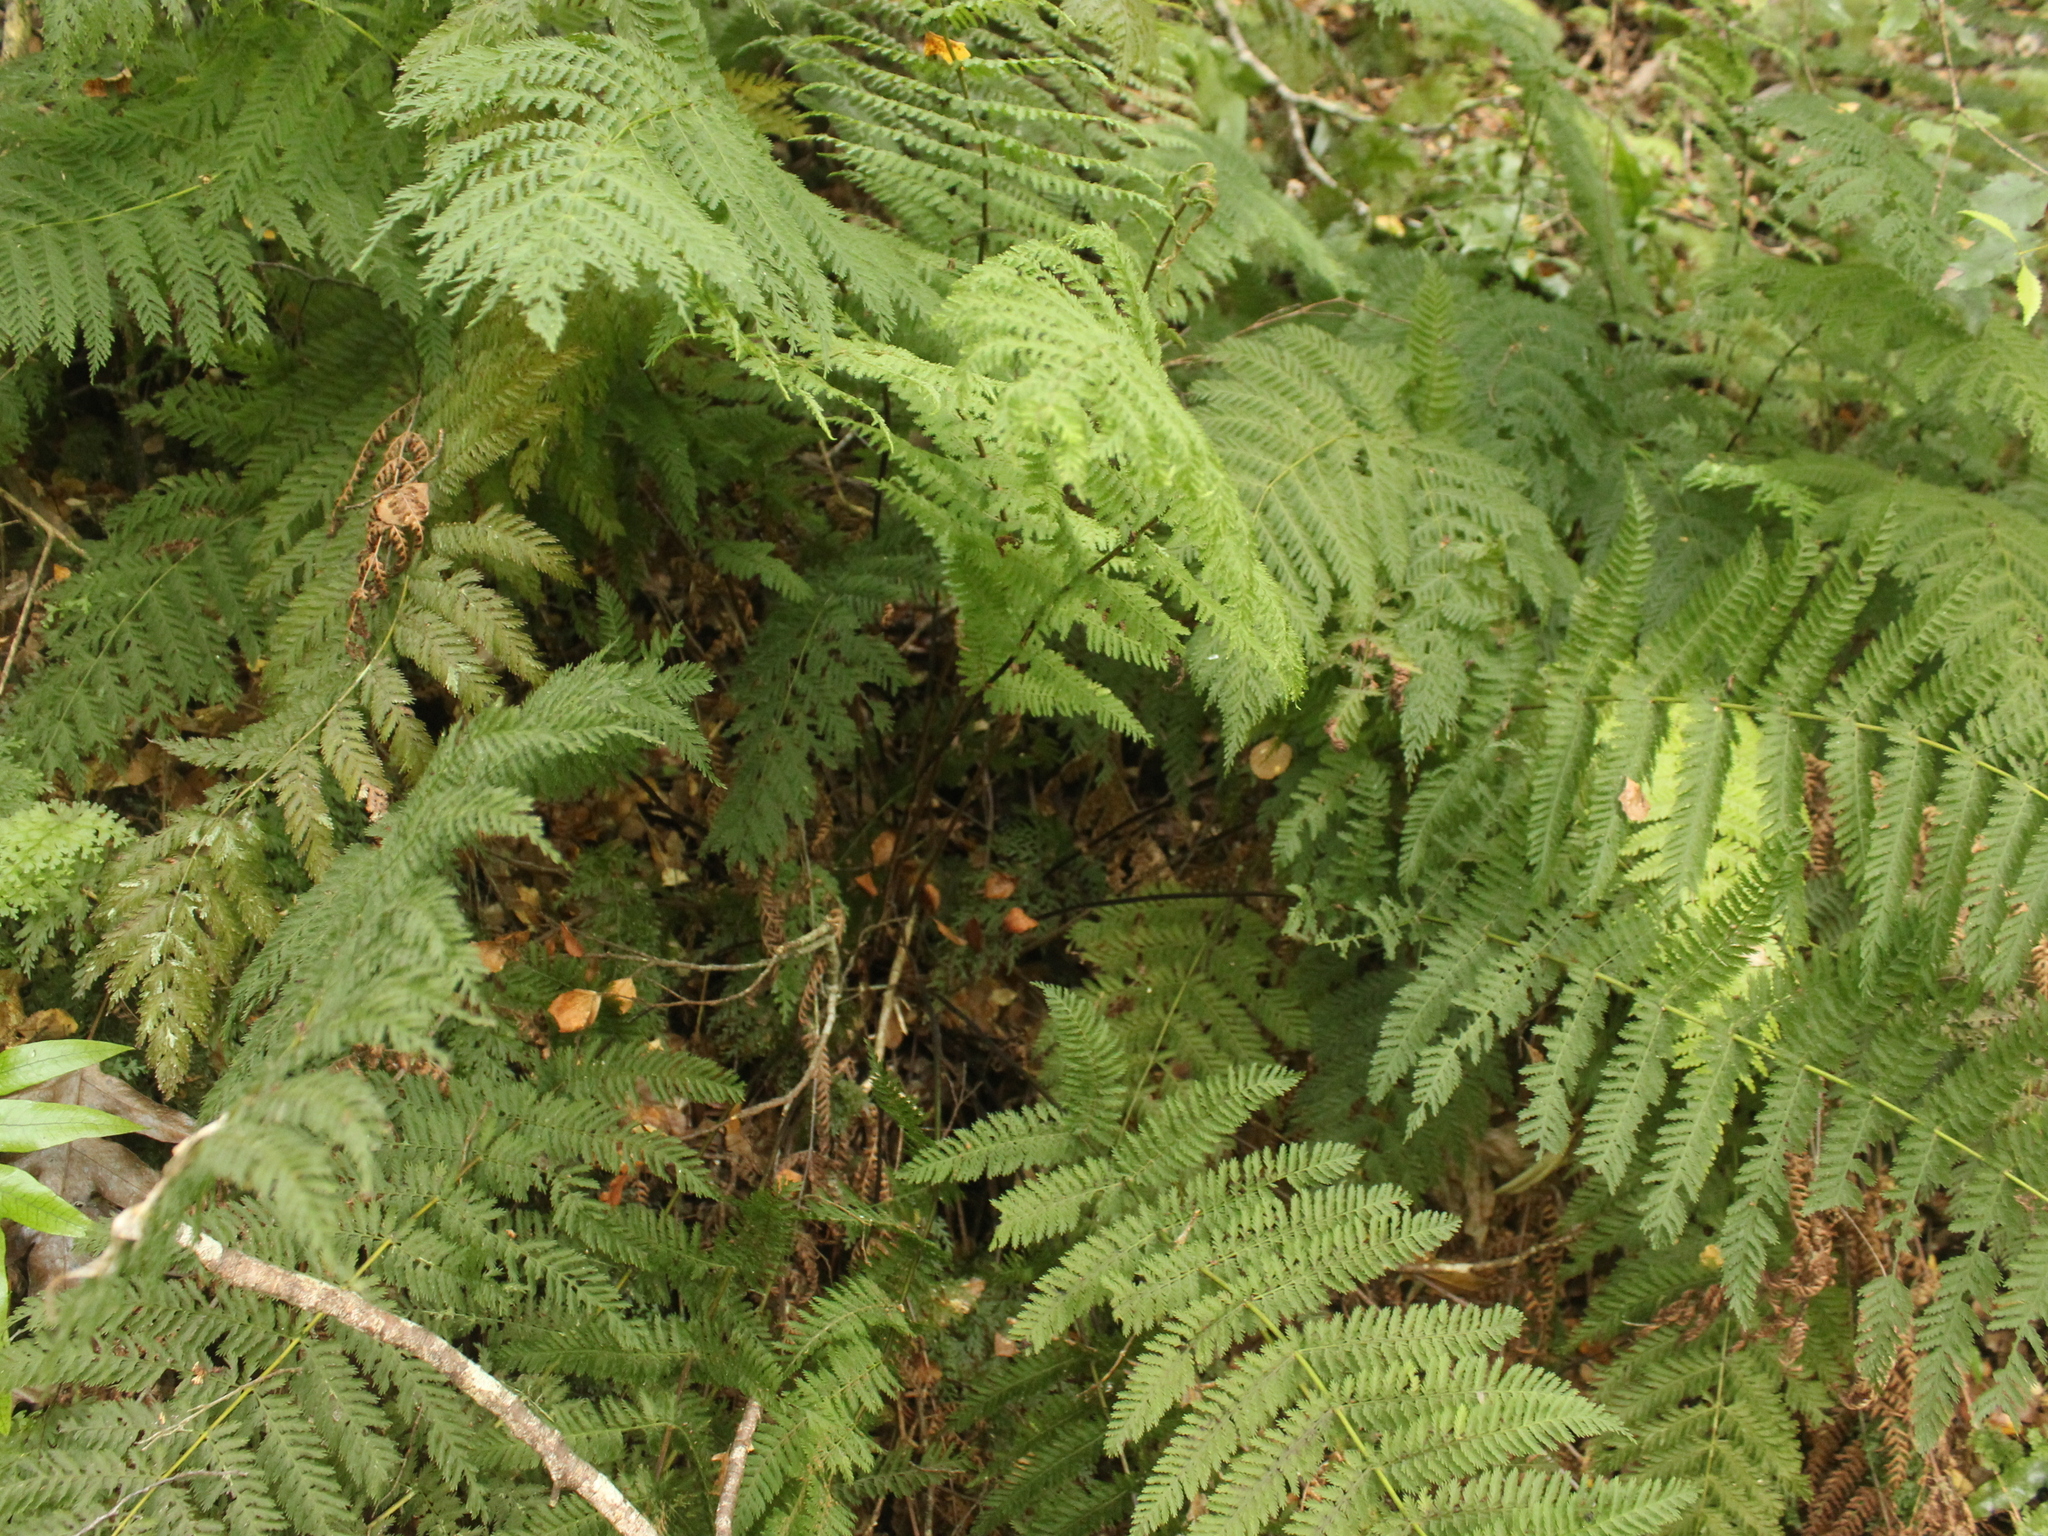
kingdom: Plantae
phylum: Tracheophyta
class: Polypodiopsida
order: Osmundales
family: Osmundaceae
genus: Leptopteris
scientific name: Leptopteris hymenophylloides
